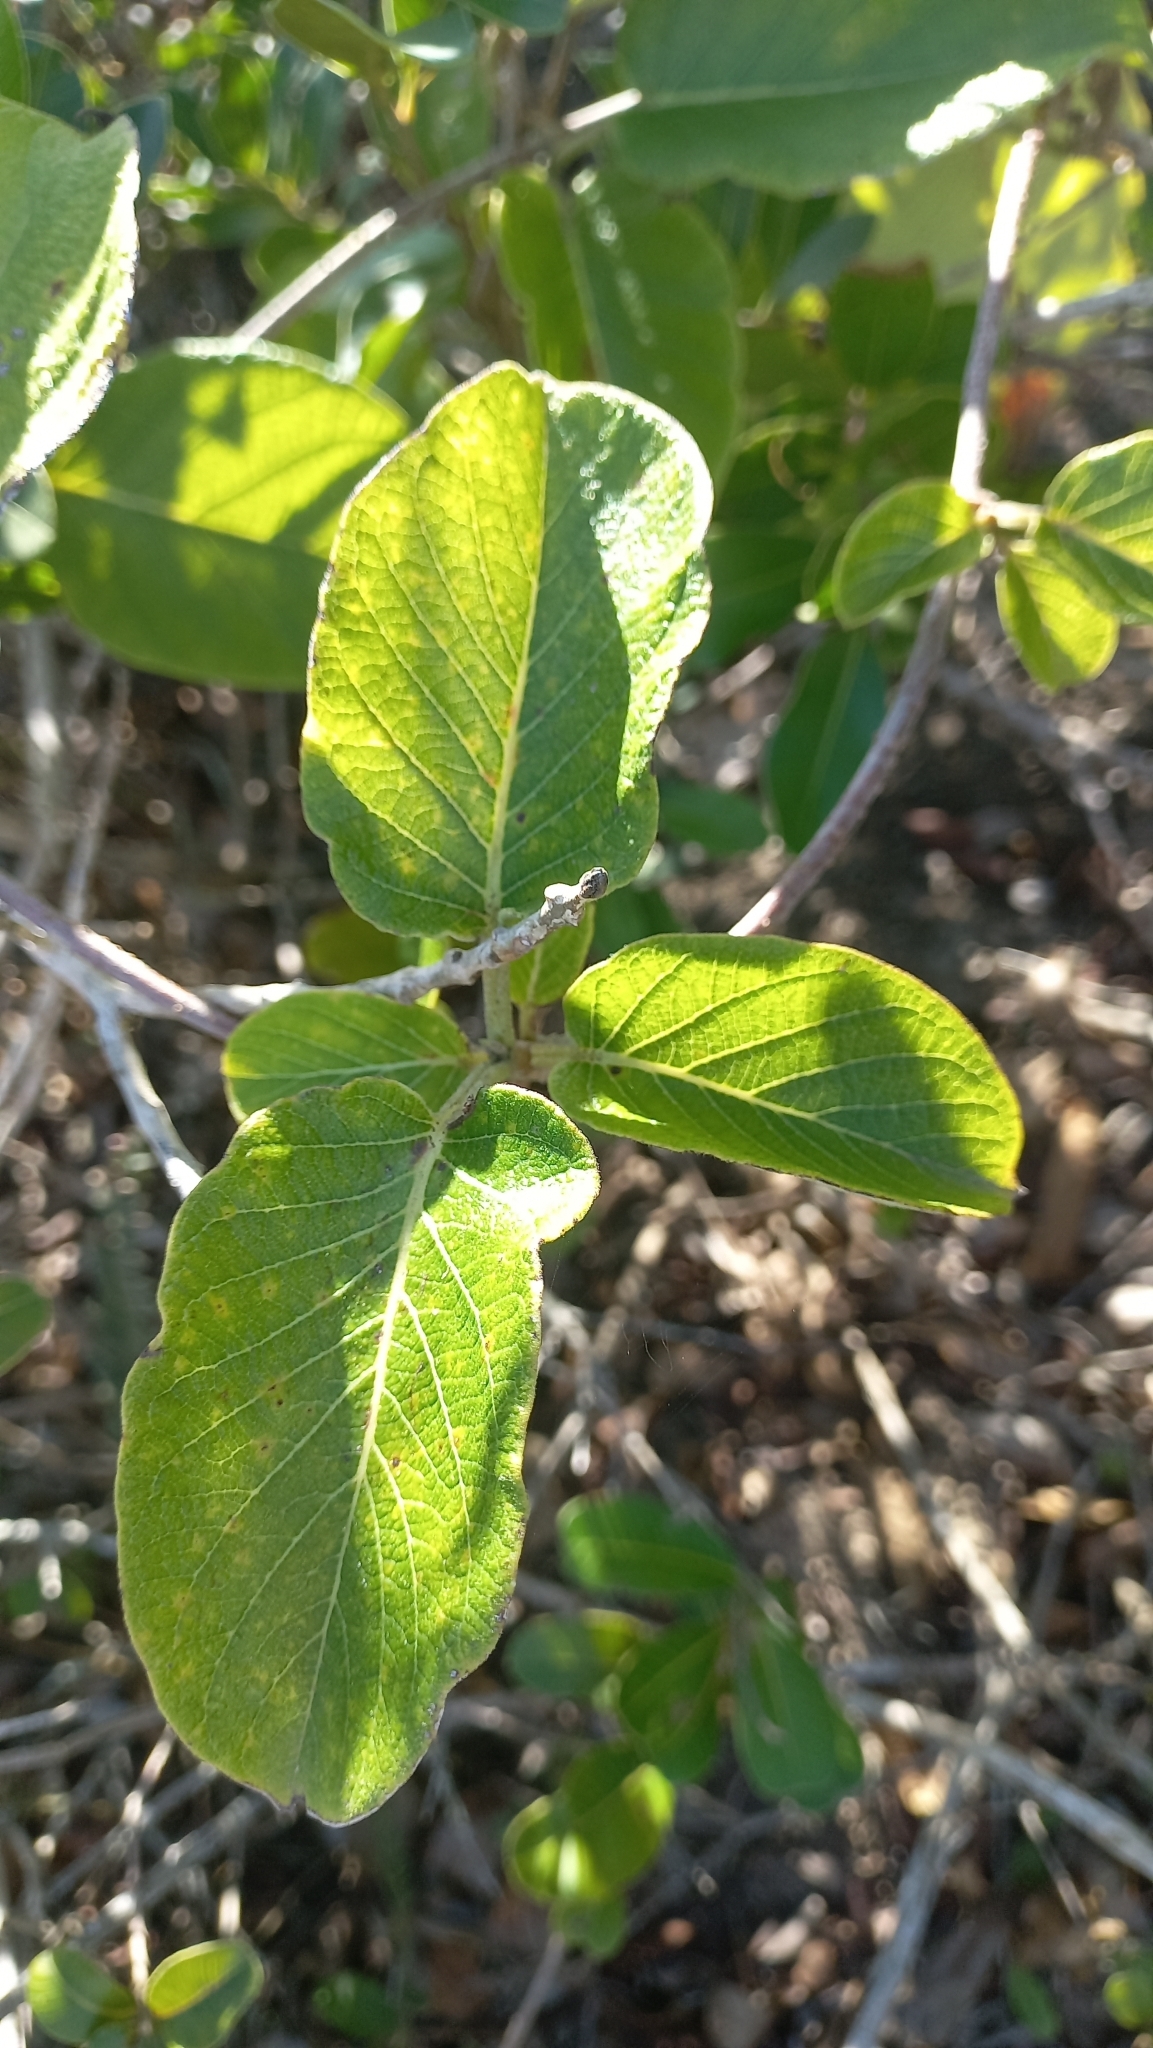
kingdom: Plantae
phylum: Tracheophyta
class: Magnoliopsida
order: Gentianales
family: Apocynaceae
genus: Mandevilla
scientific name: Mandevilla pentlandiana
